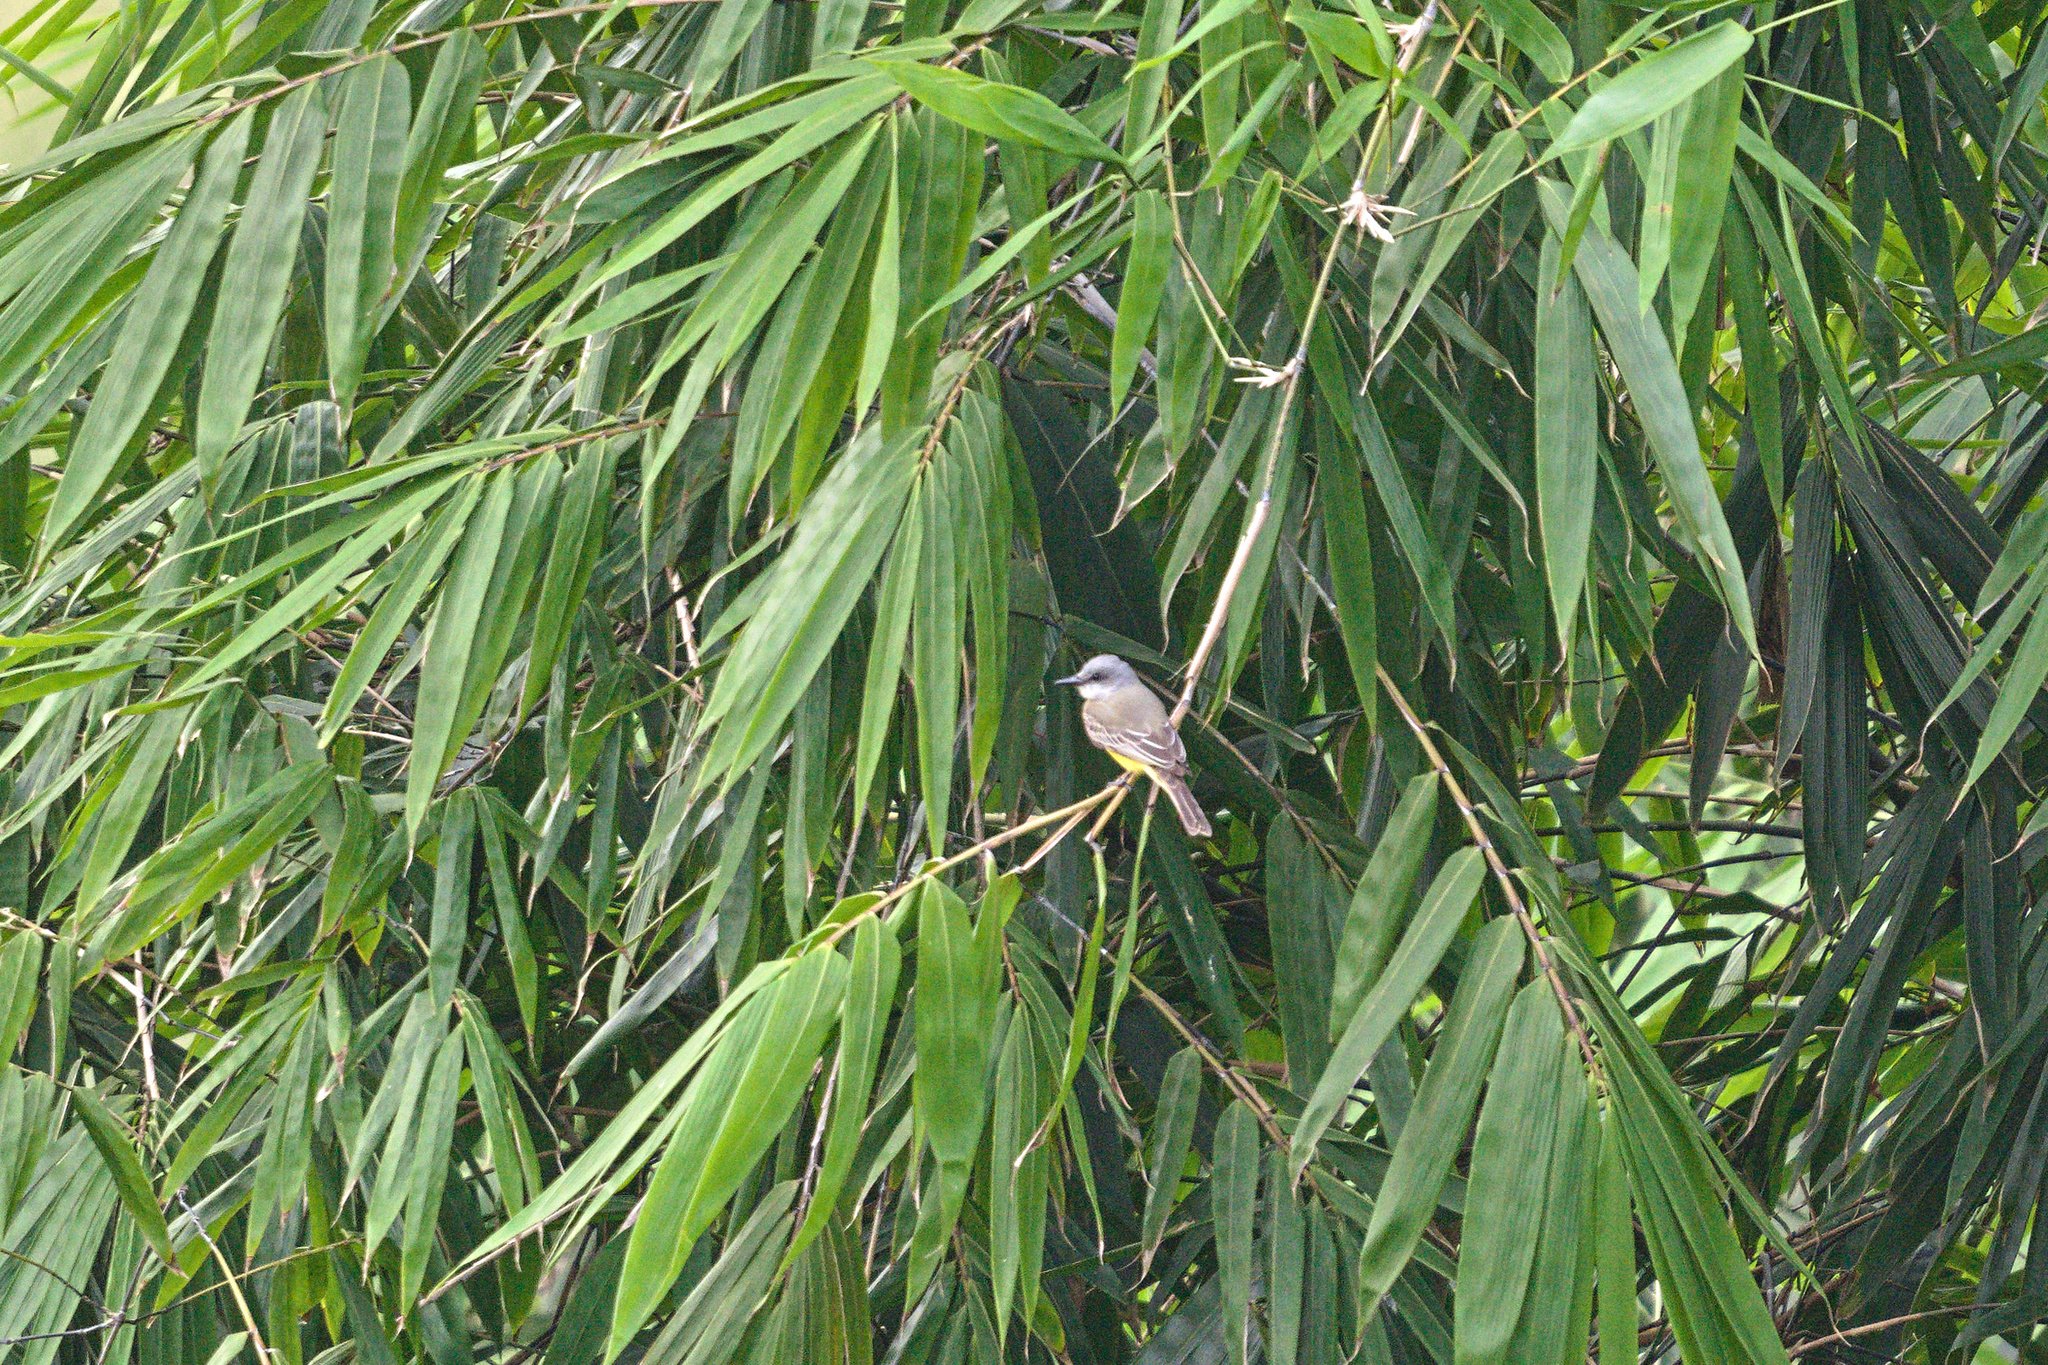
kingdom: Animalia
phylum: Chordata
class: Aves
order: Passeriformes
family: Tyrannidae
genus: Tyrannus
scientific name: Tyrannus melancholicus
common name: Tropical kingbird
